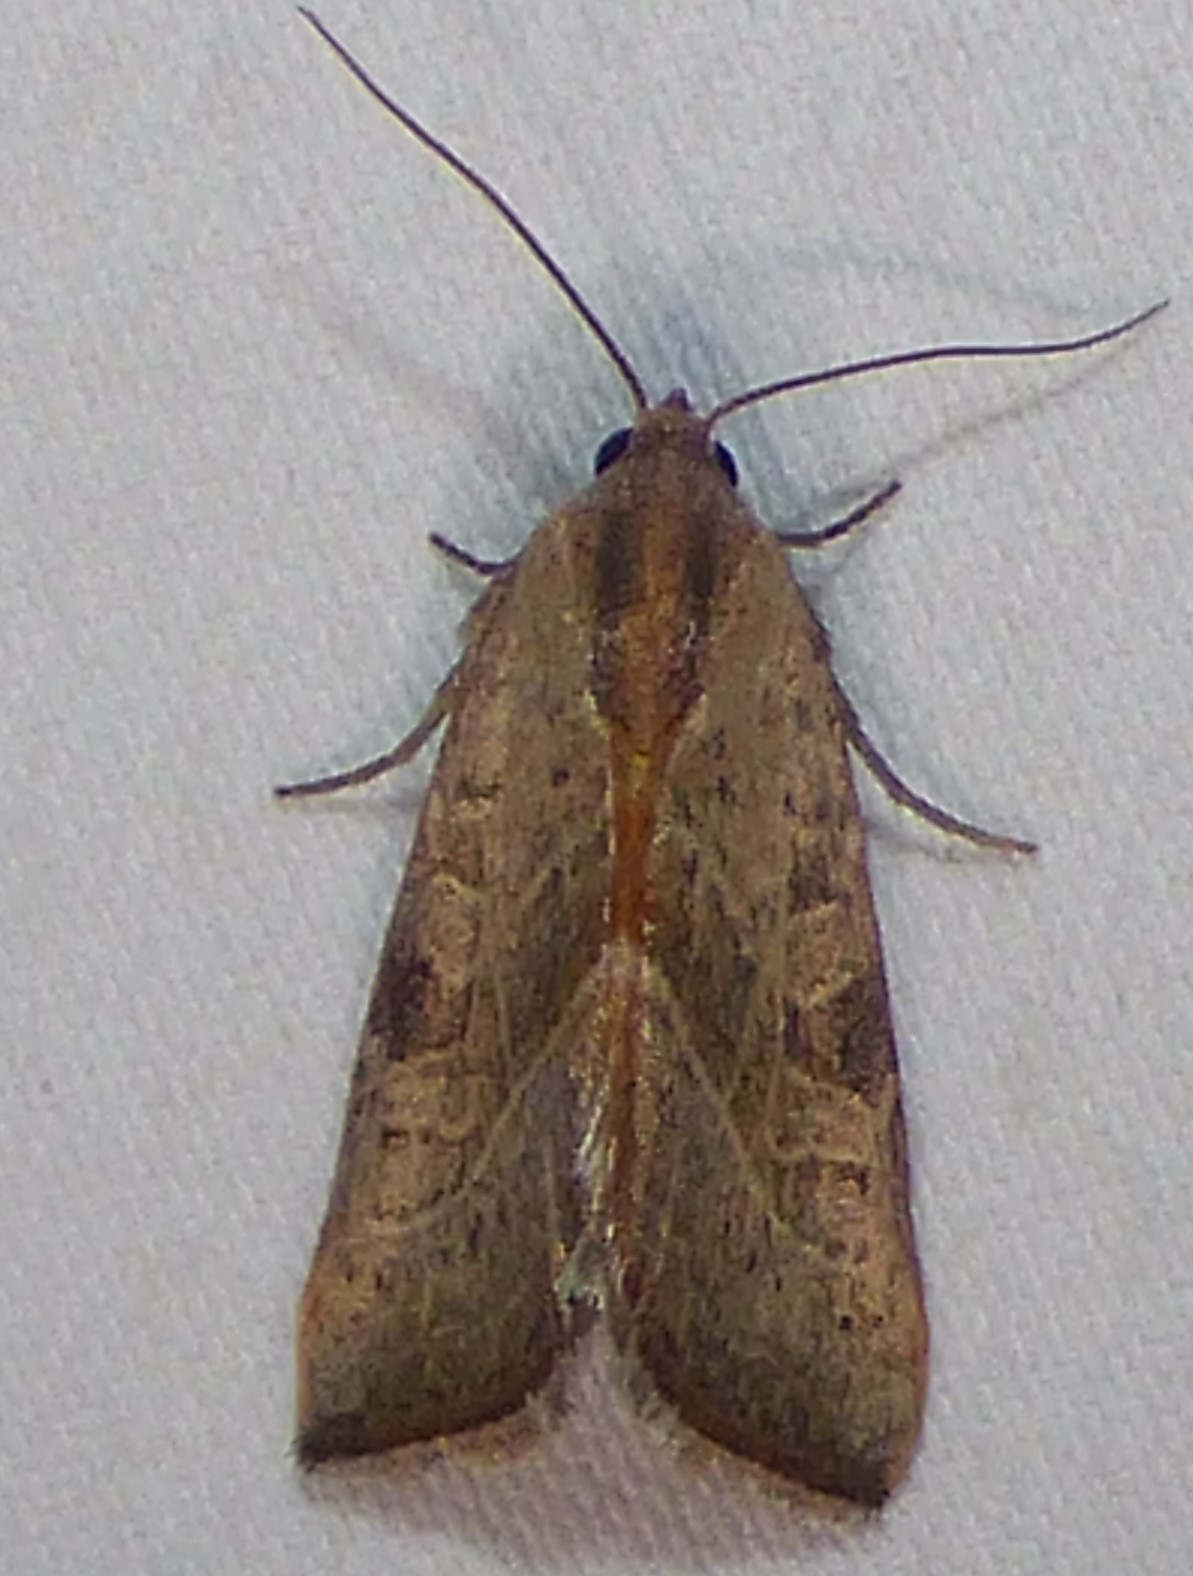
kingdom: Animalia
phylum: Arthropoda
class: Insecta
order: Lepidoptera
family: Noctuidae
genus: Galgula
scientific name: Galgula partita
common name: Wedgeling
